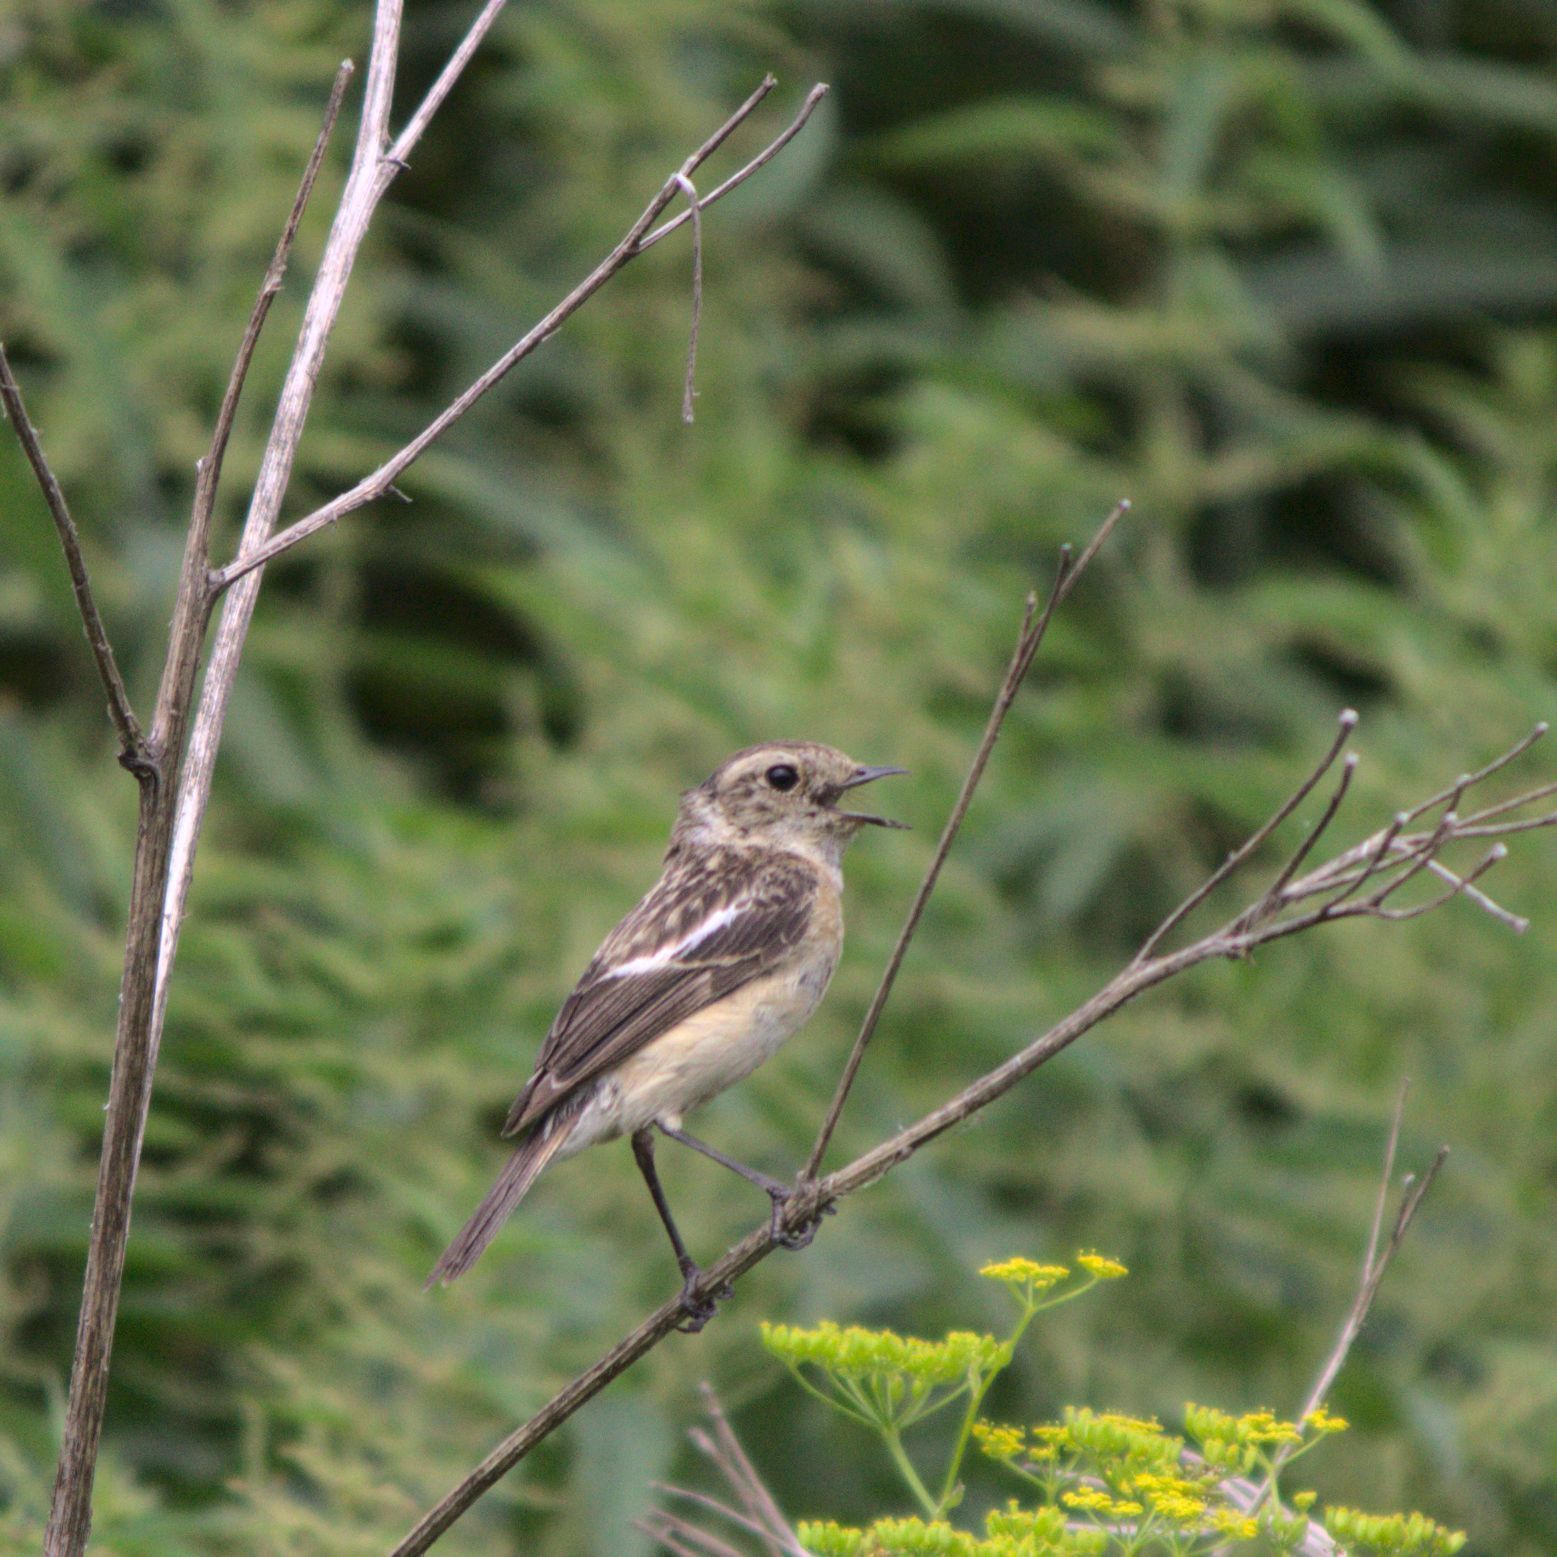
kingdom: Animalia
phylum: Chordata
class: Aves
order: Passeriformes
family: Muscicapidae
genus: Saxicola
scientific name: Saxicola maurus
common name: Siberian stonechat
